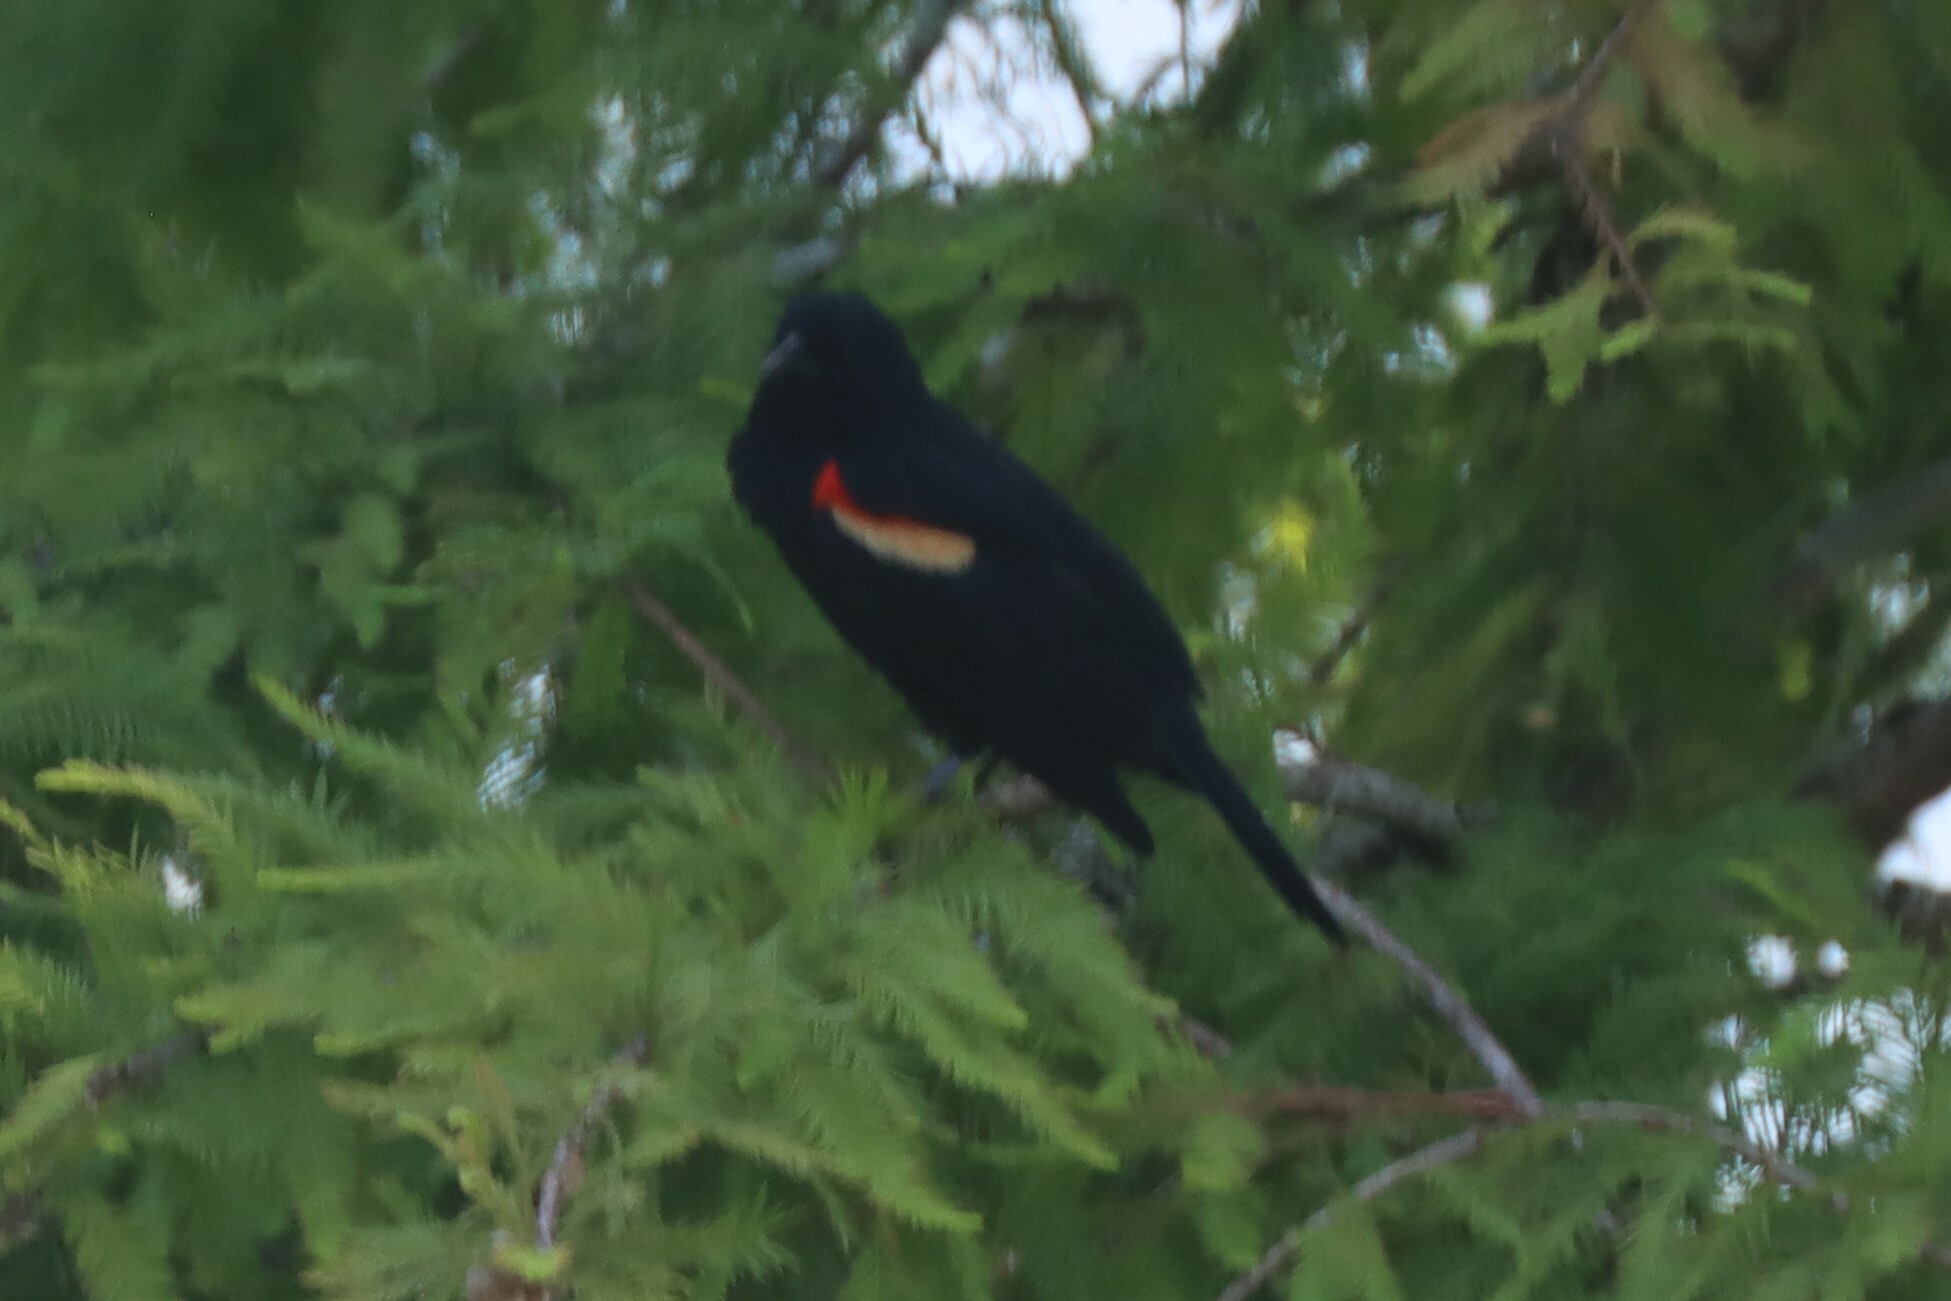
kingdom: Animalia
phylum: Chordata
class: Aves
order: Passeriformes
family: Icteridae
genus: Agelaius
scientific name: Agelaius phoeniceus
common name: Red-winged blackbird
